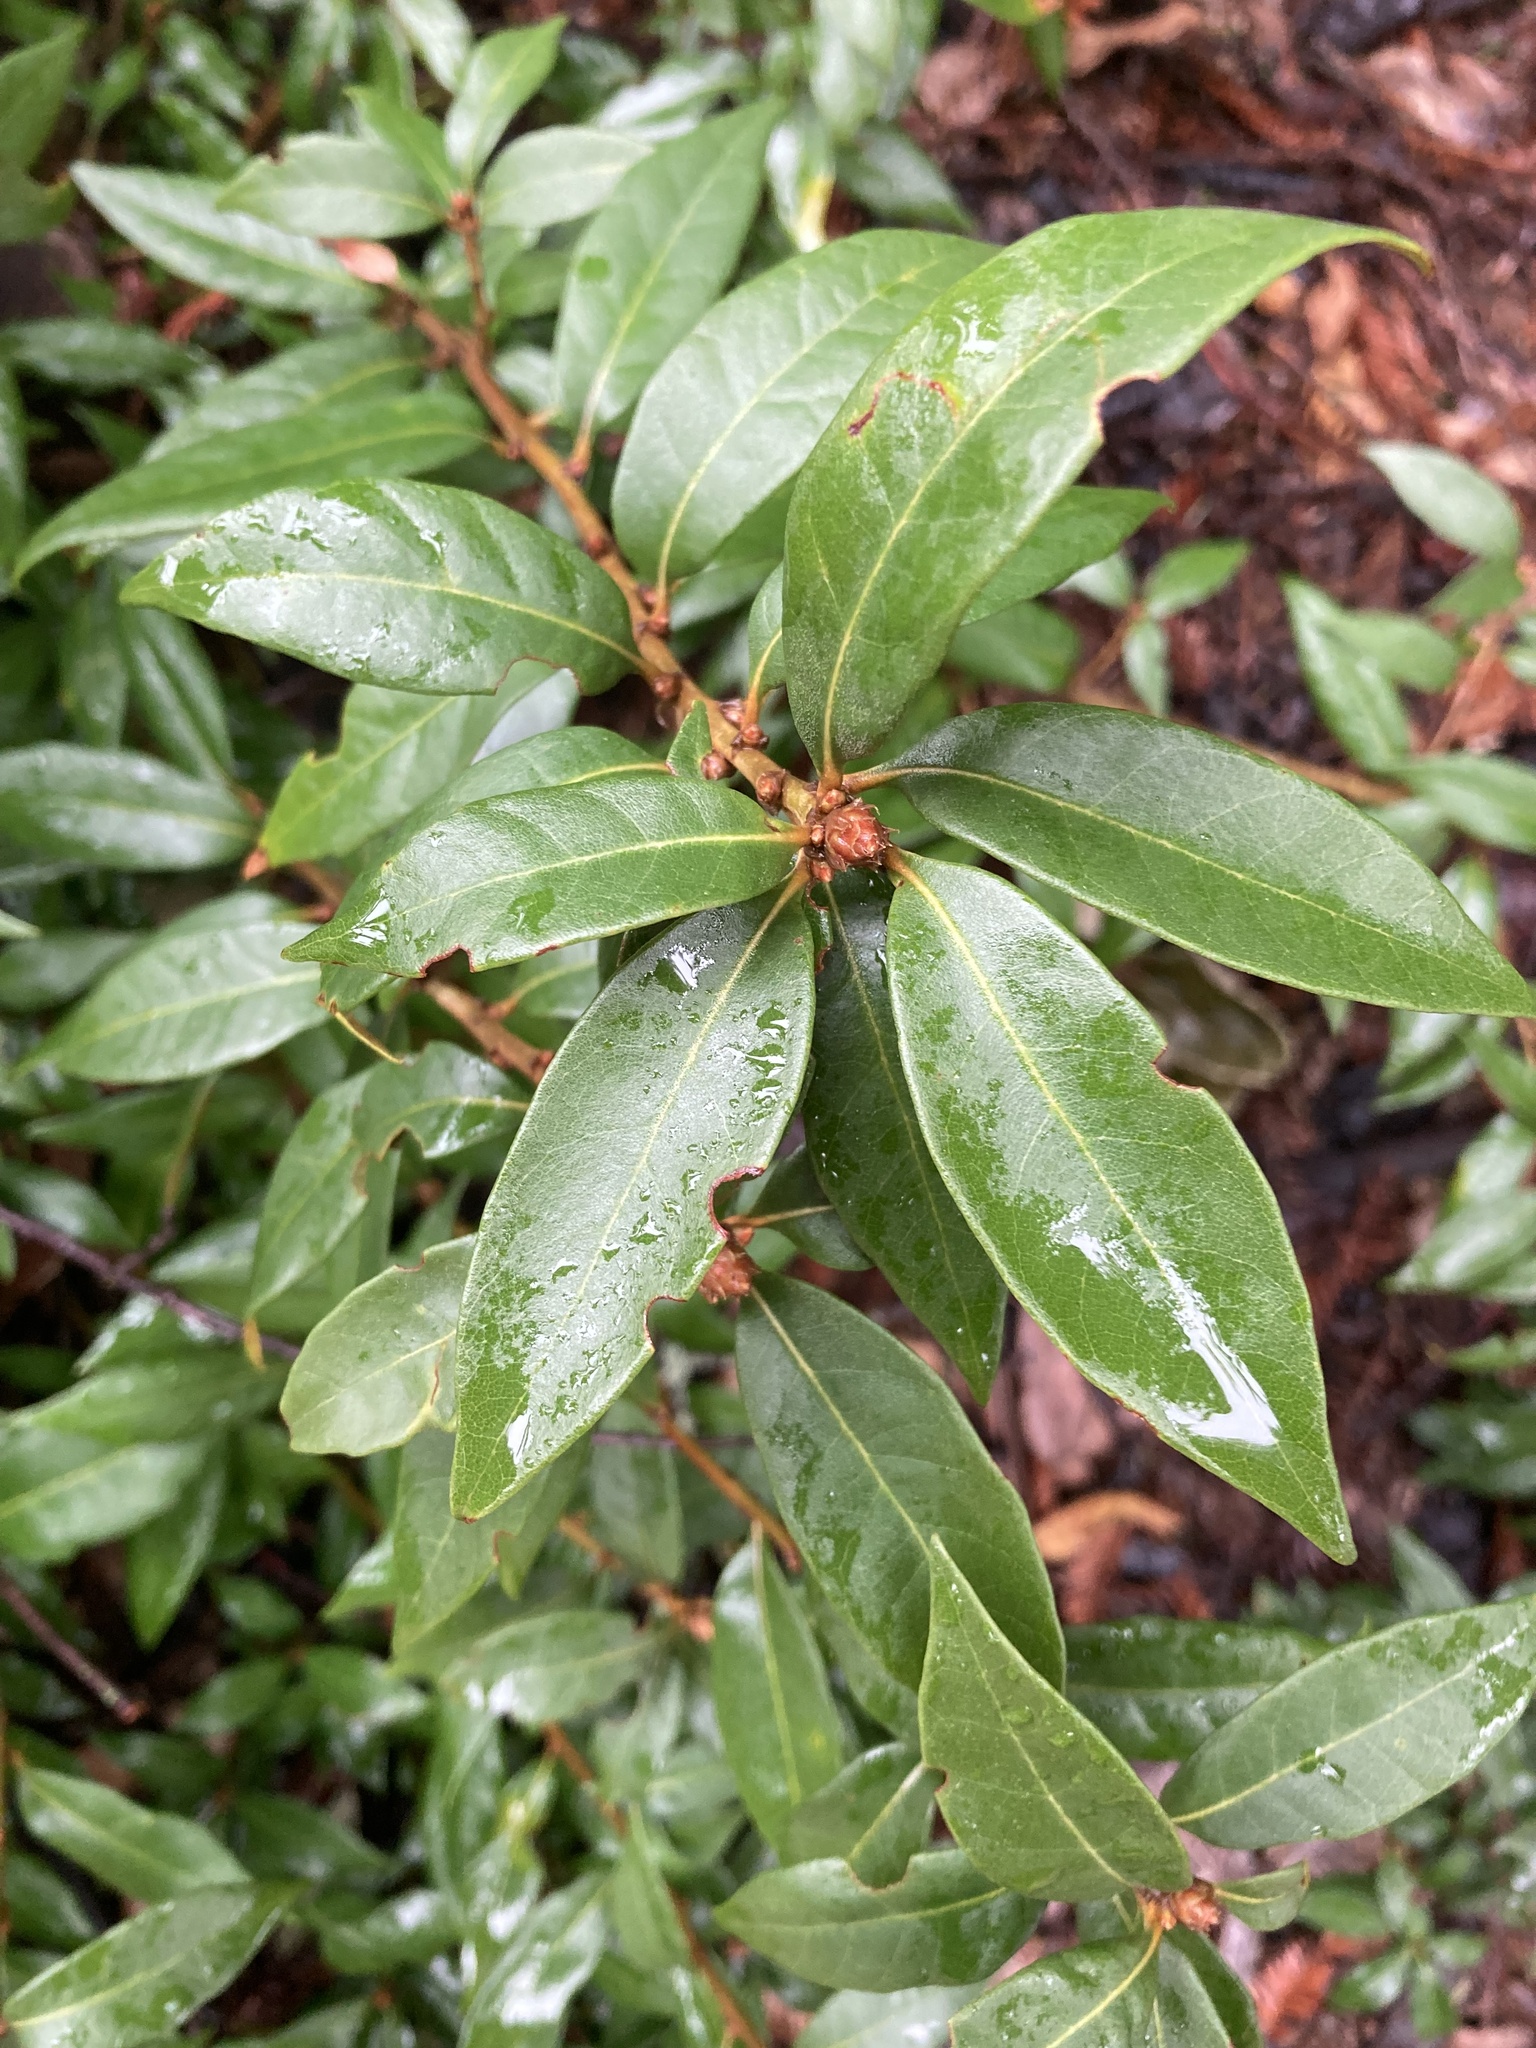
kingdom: Plantae
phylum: Tracheophyta
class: Magnoliopsida
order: Fagales
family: Fagaceae
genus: Chrysolepis
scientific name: Chrysolepis chrysophylla
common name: Giant chinquapin
